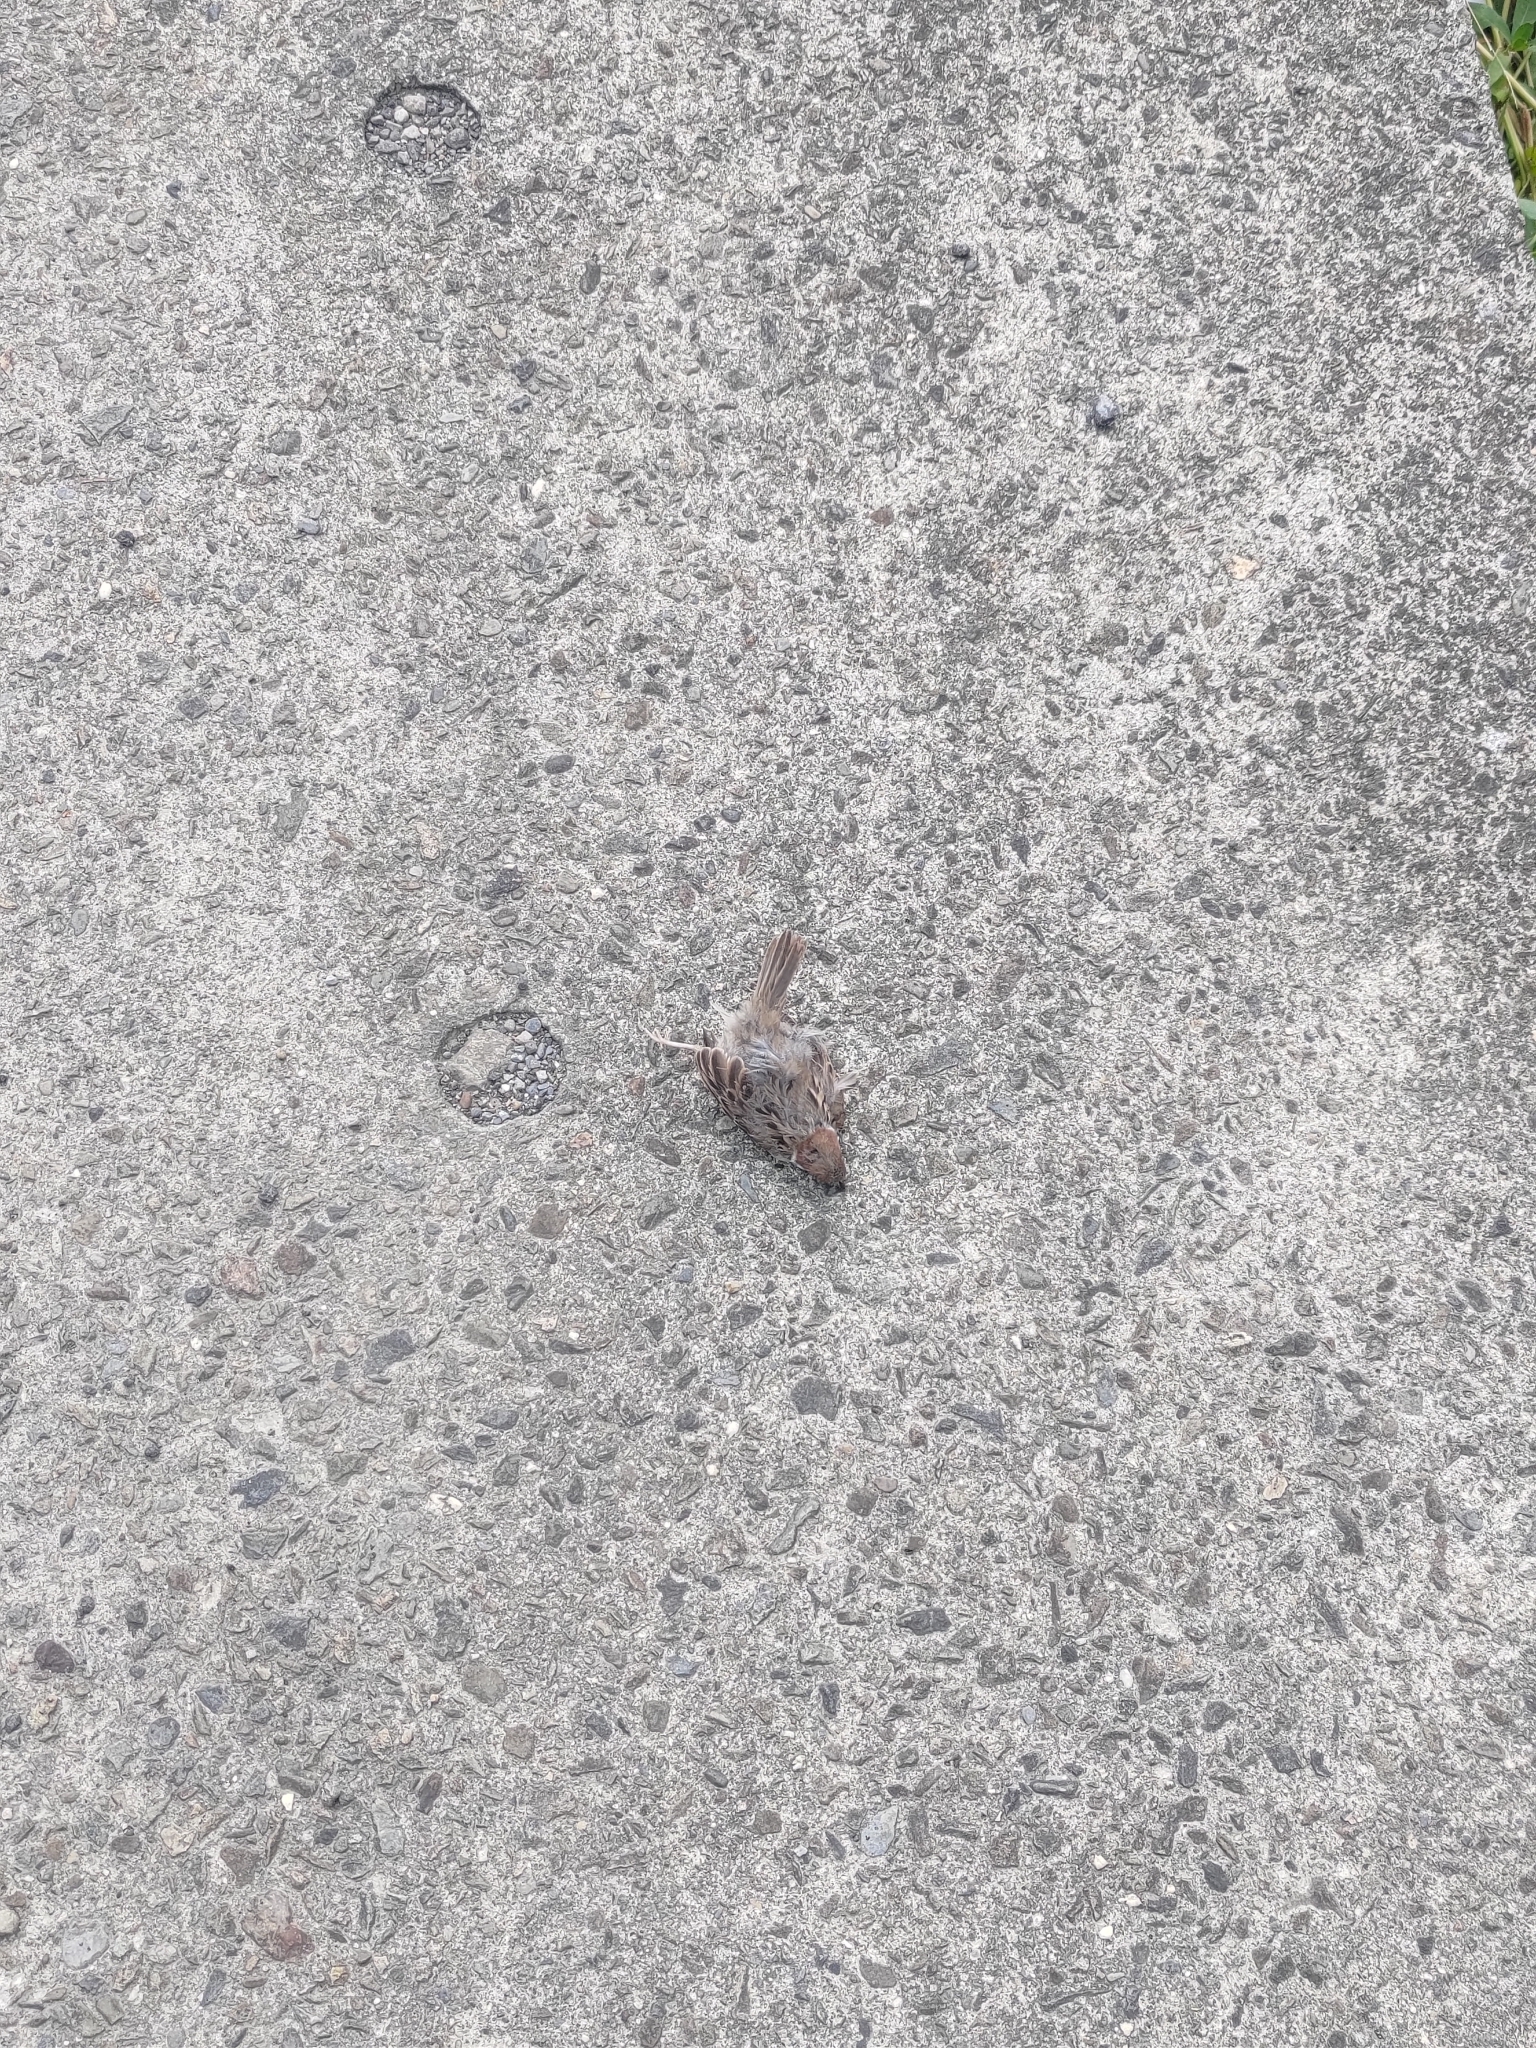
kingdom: Animalia
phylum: Chordata
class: Aves
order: Passeriformes
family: Passeridae
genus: Passer
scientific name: Passer montanus
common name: Eurasian tree sparrow
